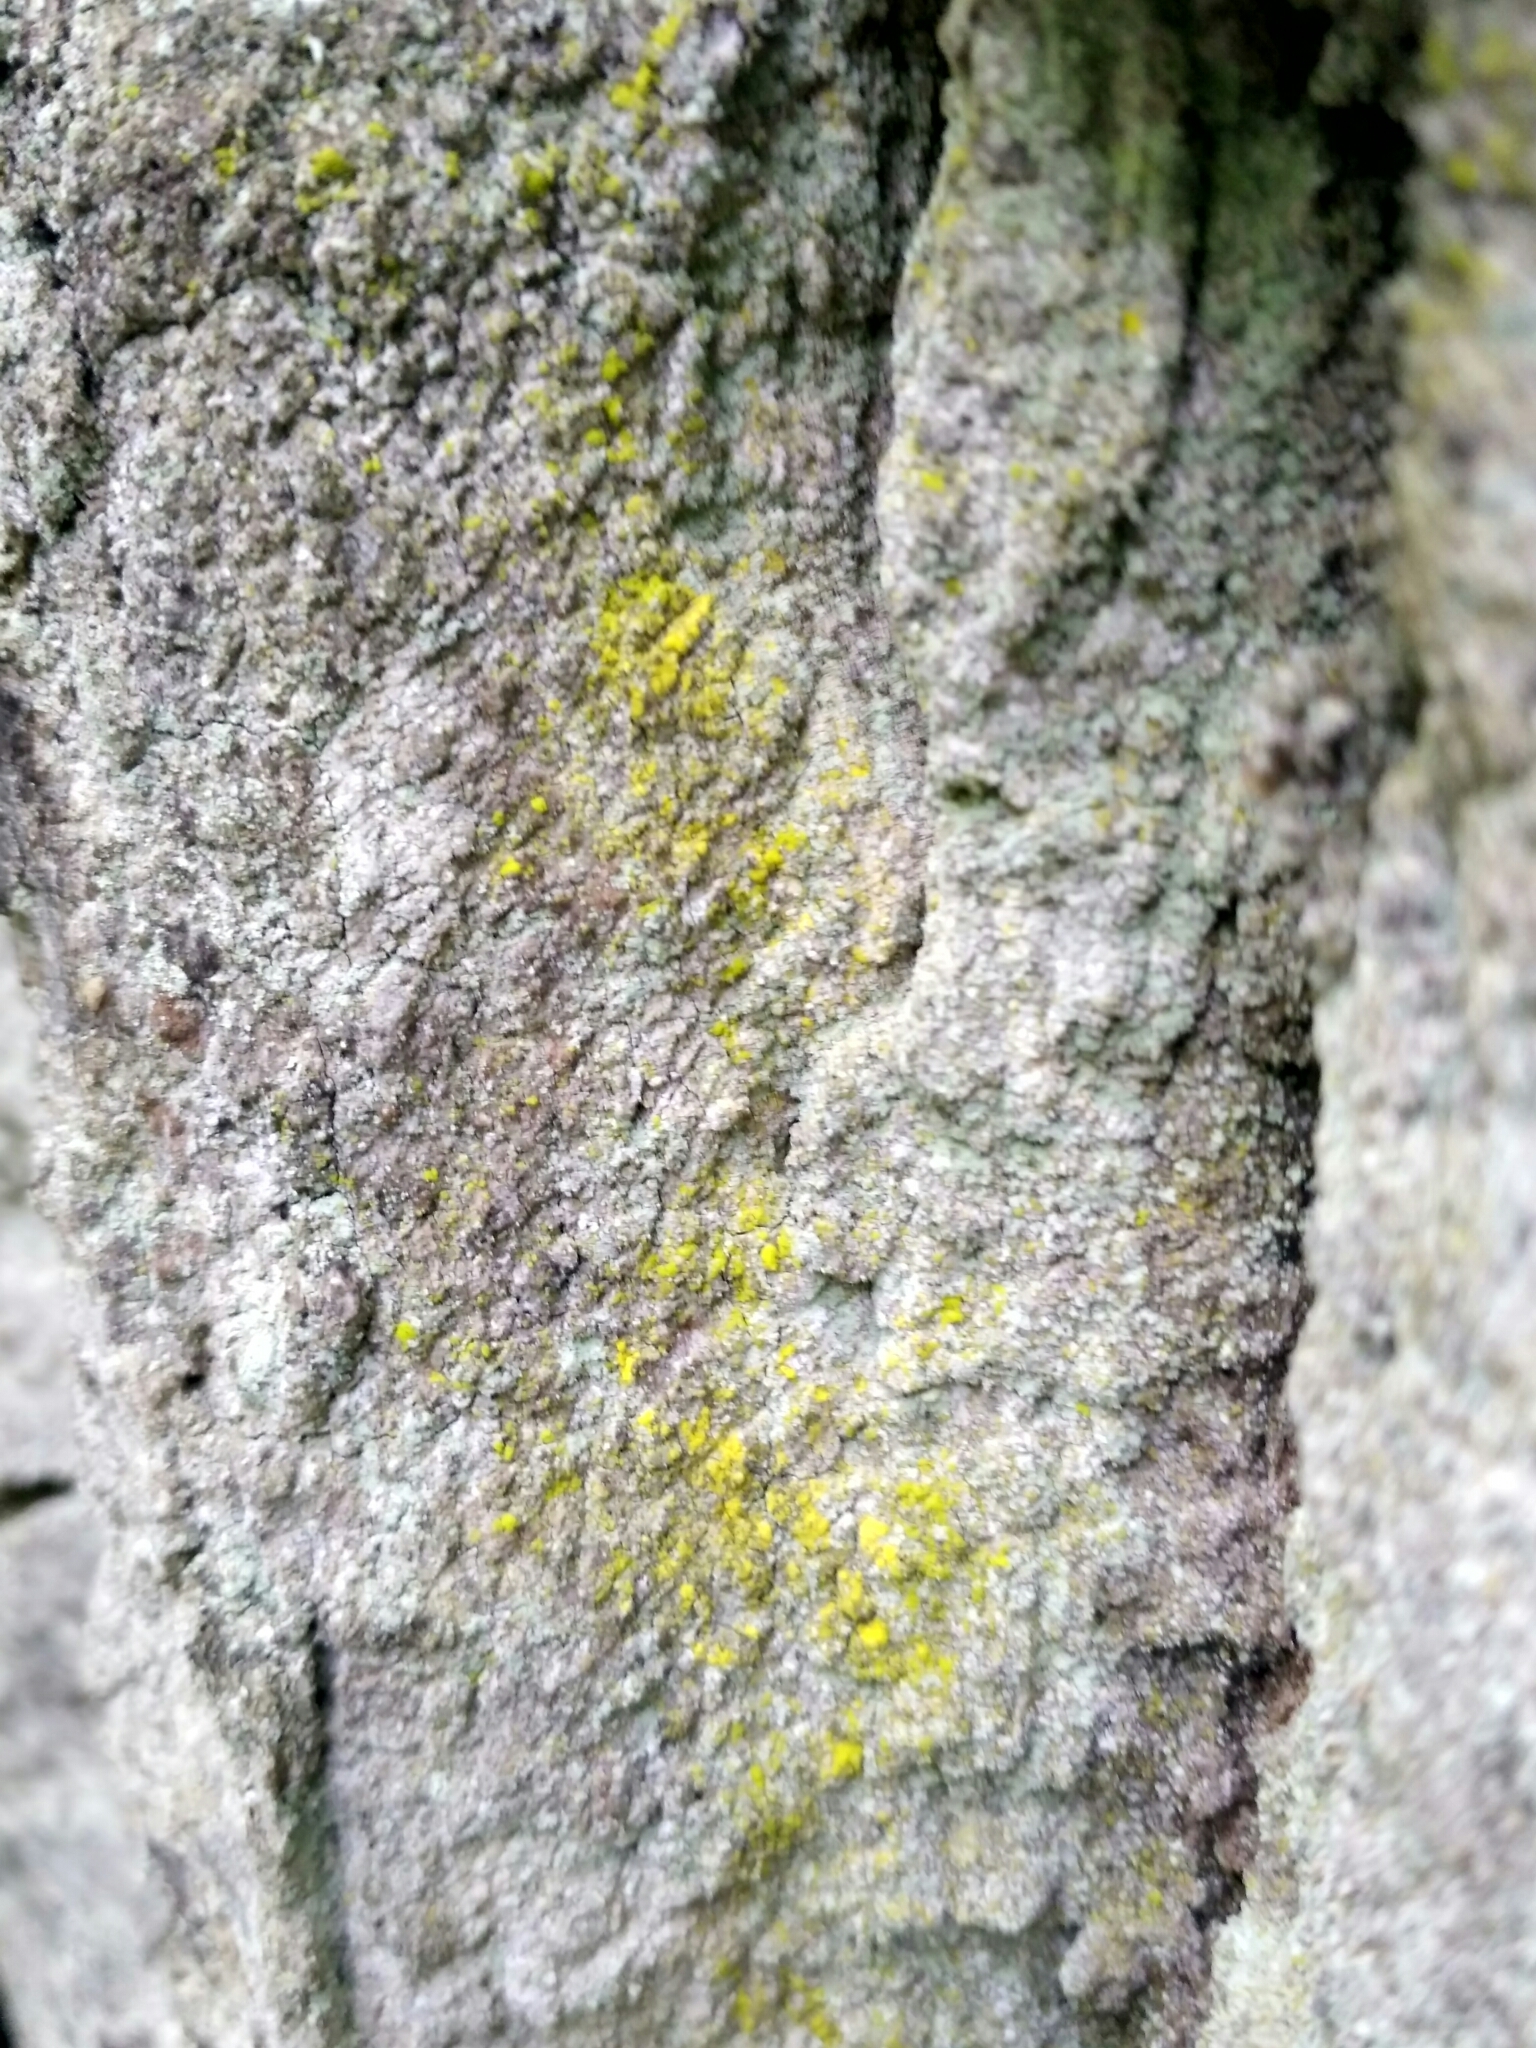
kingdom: Fungi
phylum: Ascomycota
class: Arthoniomycetes
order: Arthoniales
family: Chrysotrichaceae
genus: Chrysothrix
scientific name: Chrysothrix candelaris
